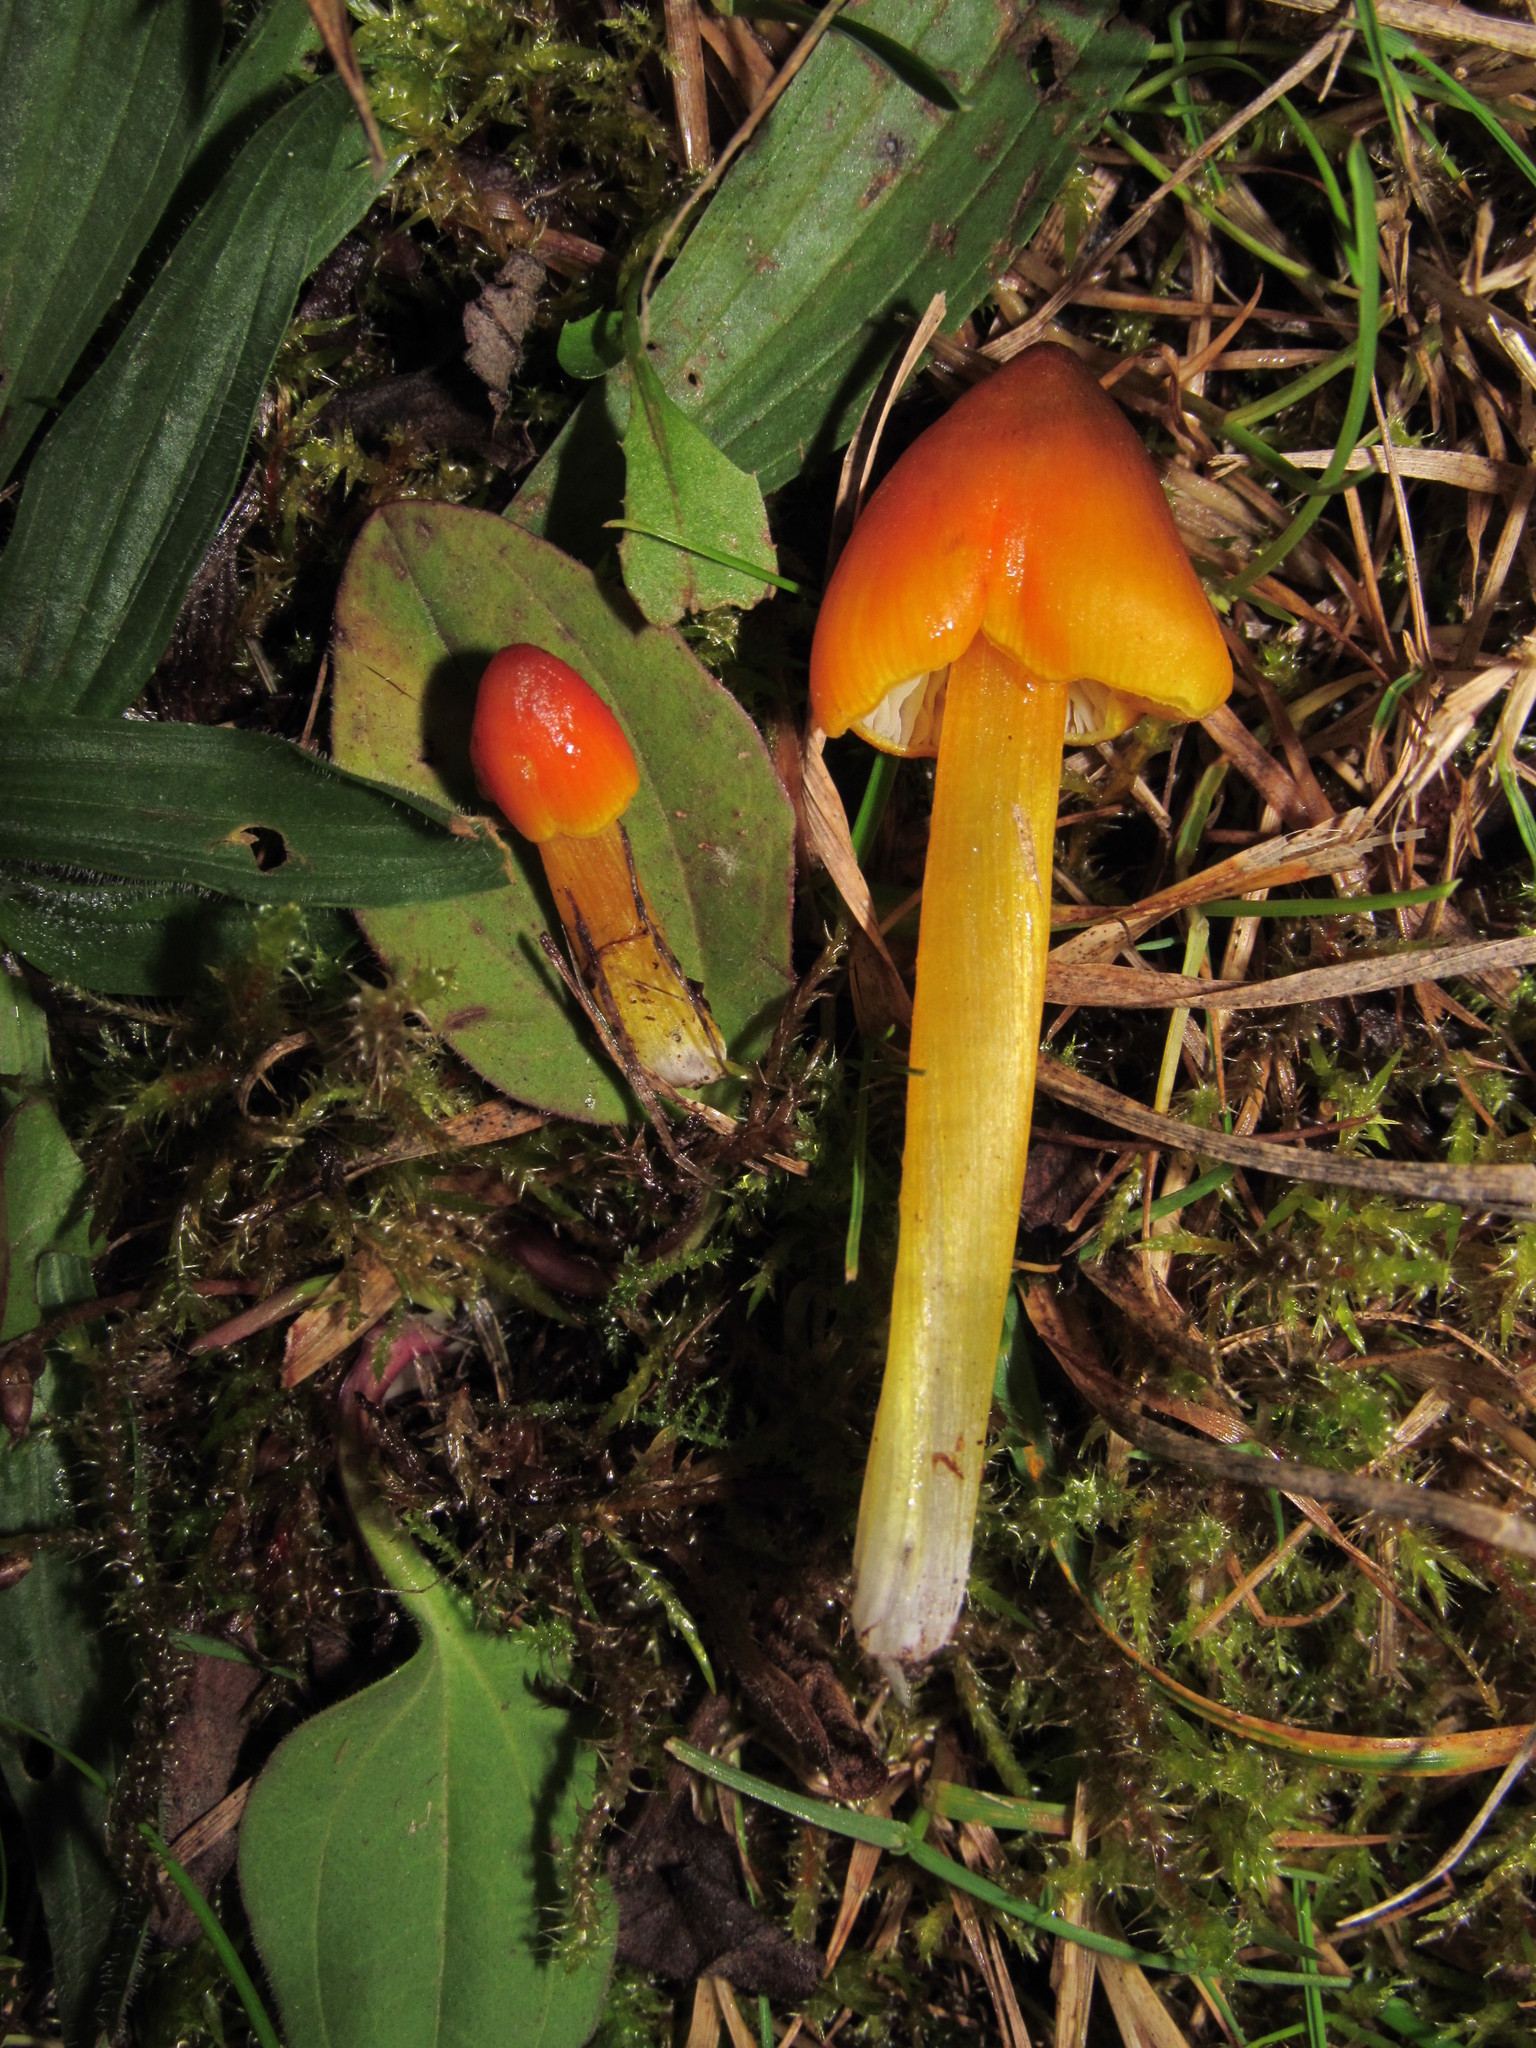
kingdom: Fungi
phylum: Basidiomycota
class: Agaricomycetes
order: Agaricales
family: Hygrophoraceae
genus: Hygrocybe
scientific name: Hygrocybe conica
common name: Blackening wax-cap
